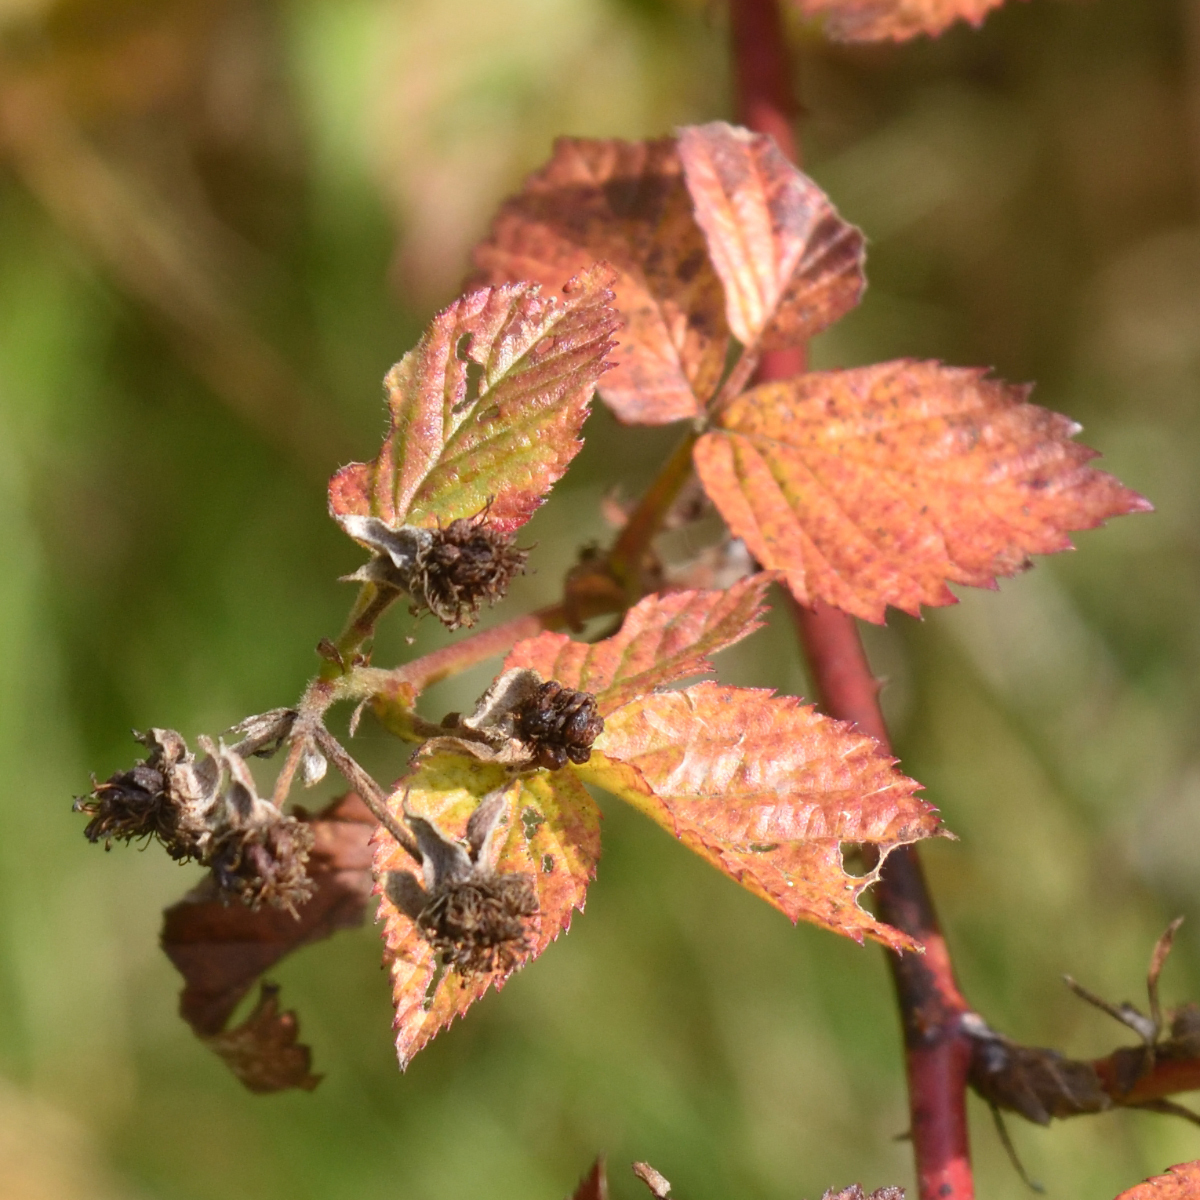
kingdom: Plantae
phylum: Tracheophyta
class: Magnoliopsida
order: Rosales
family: Rosaceae
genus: Rubus
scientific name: Rubus polonicus
